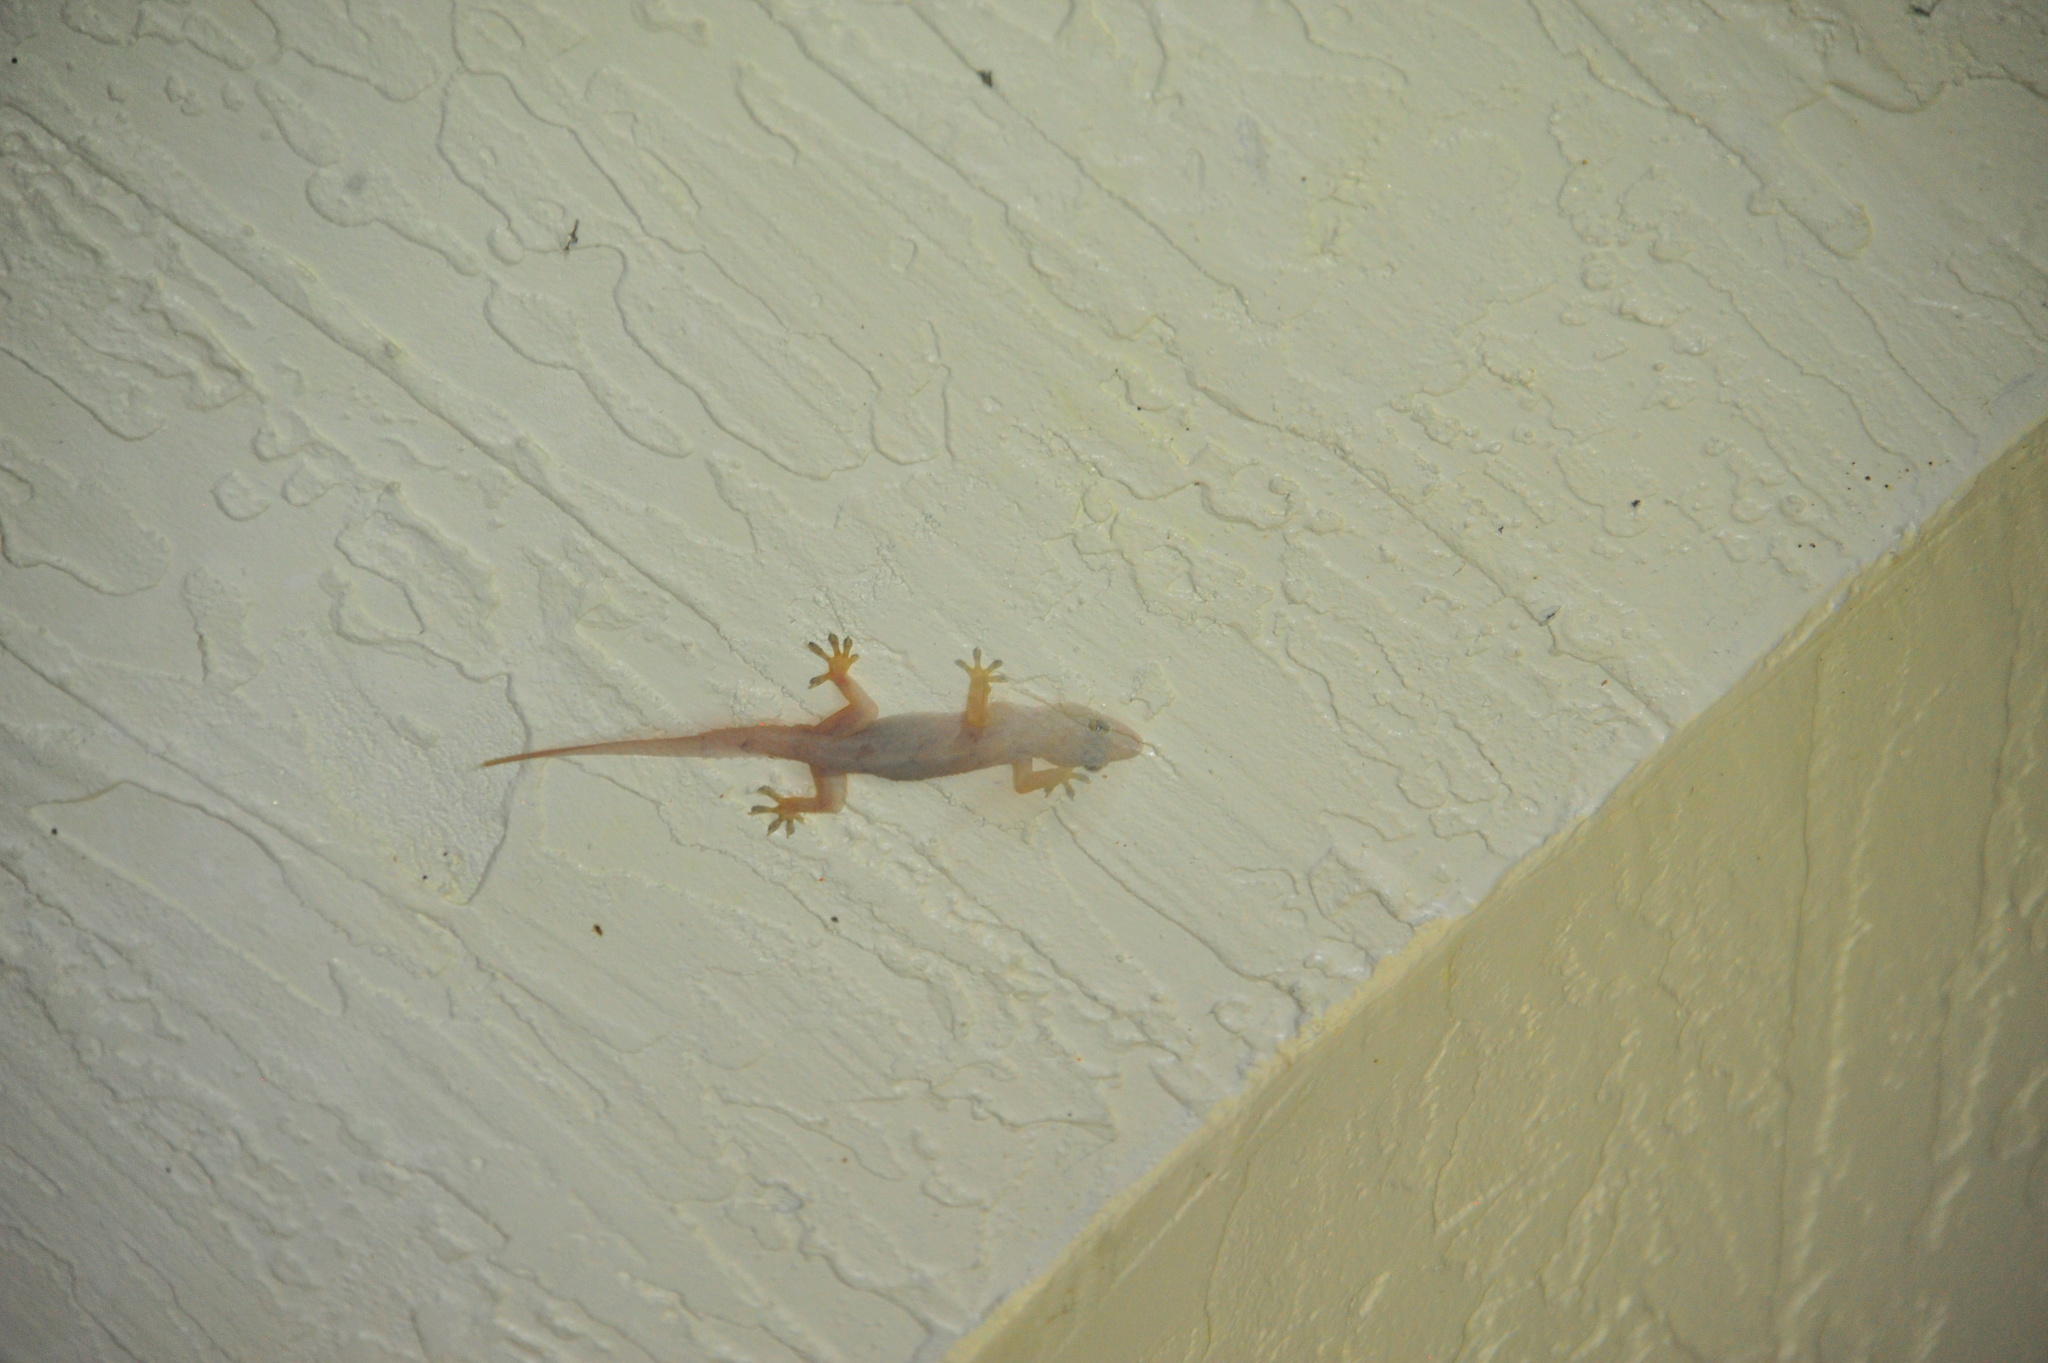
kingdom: Animalia
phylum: Chordata
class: Squamata
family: Gekkonidae
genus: Hemidactylus
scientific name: Hemidactylus mabouia
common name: House gecko
